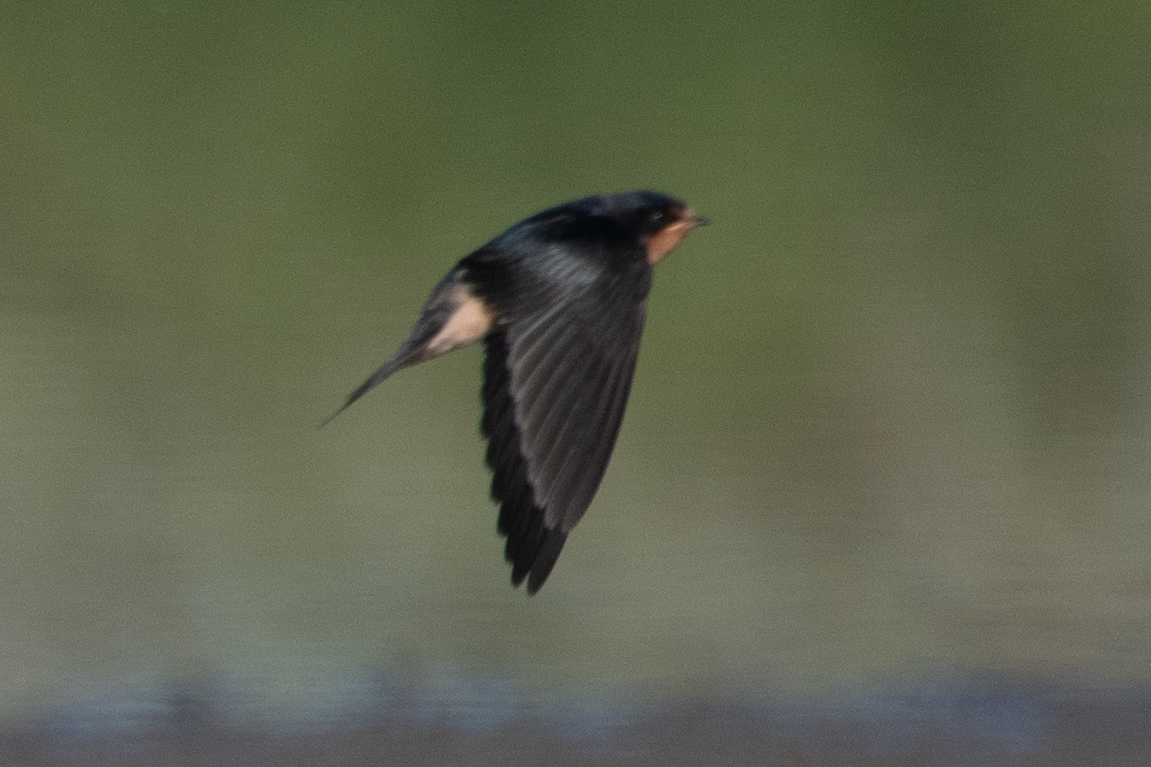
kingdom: Animalia
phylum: Chordata
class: Aves
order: Passeriformes
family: Hirundinidae
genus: Hirundo
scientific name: Hirundo rustica
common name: Barn swallow
